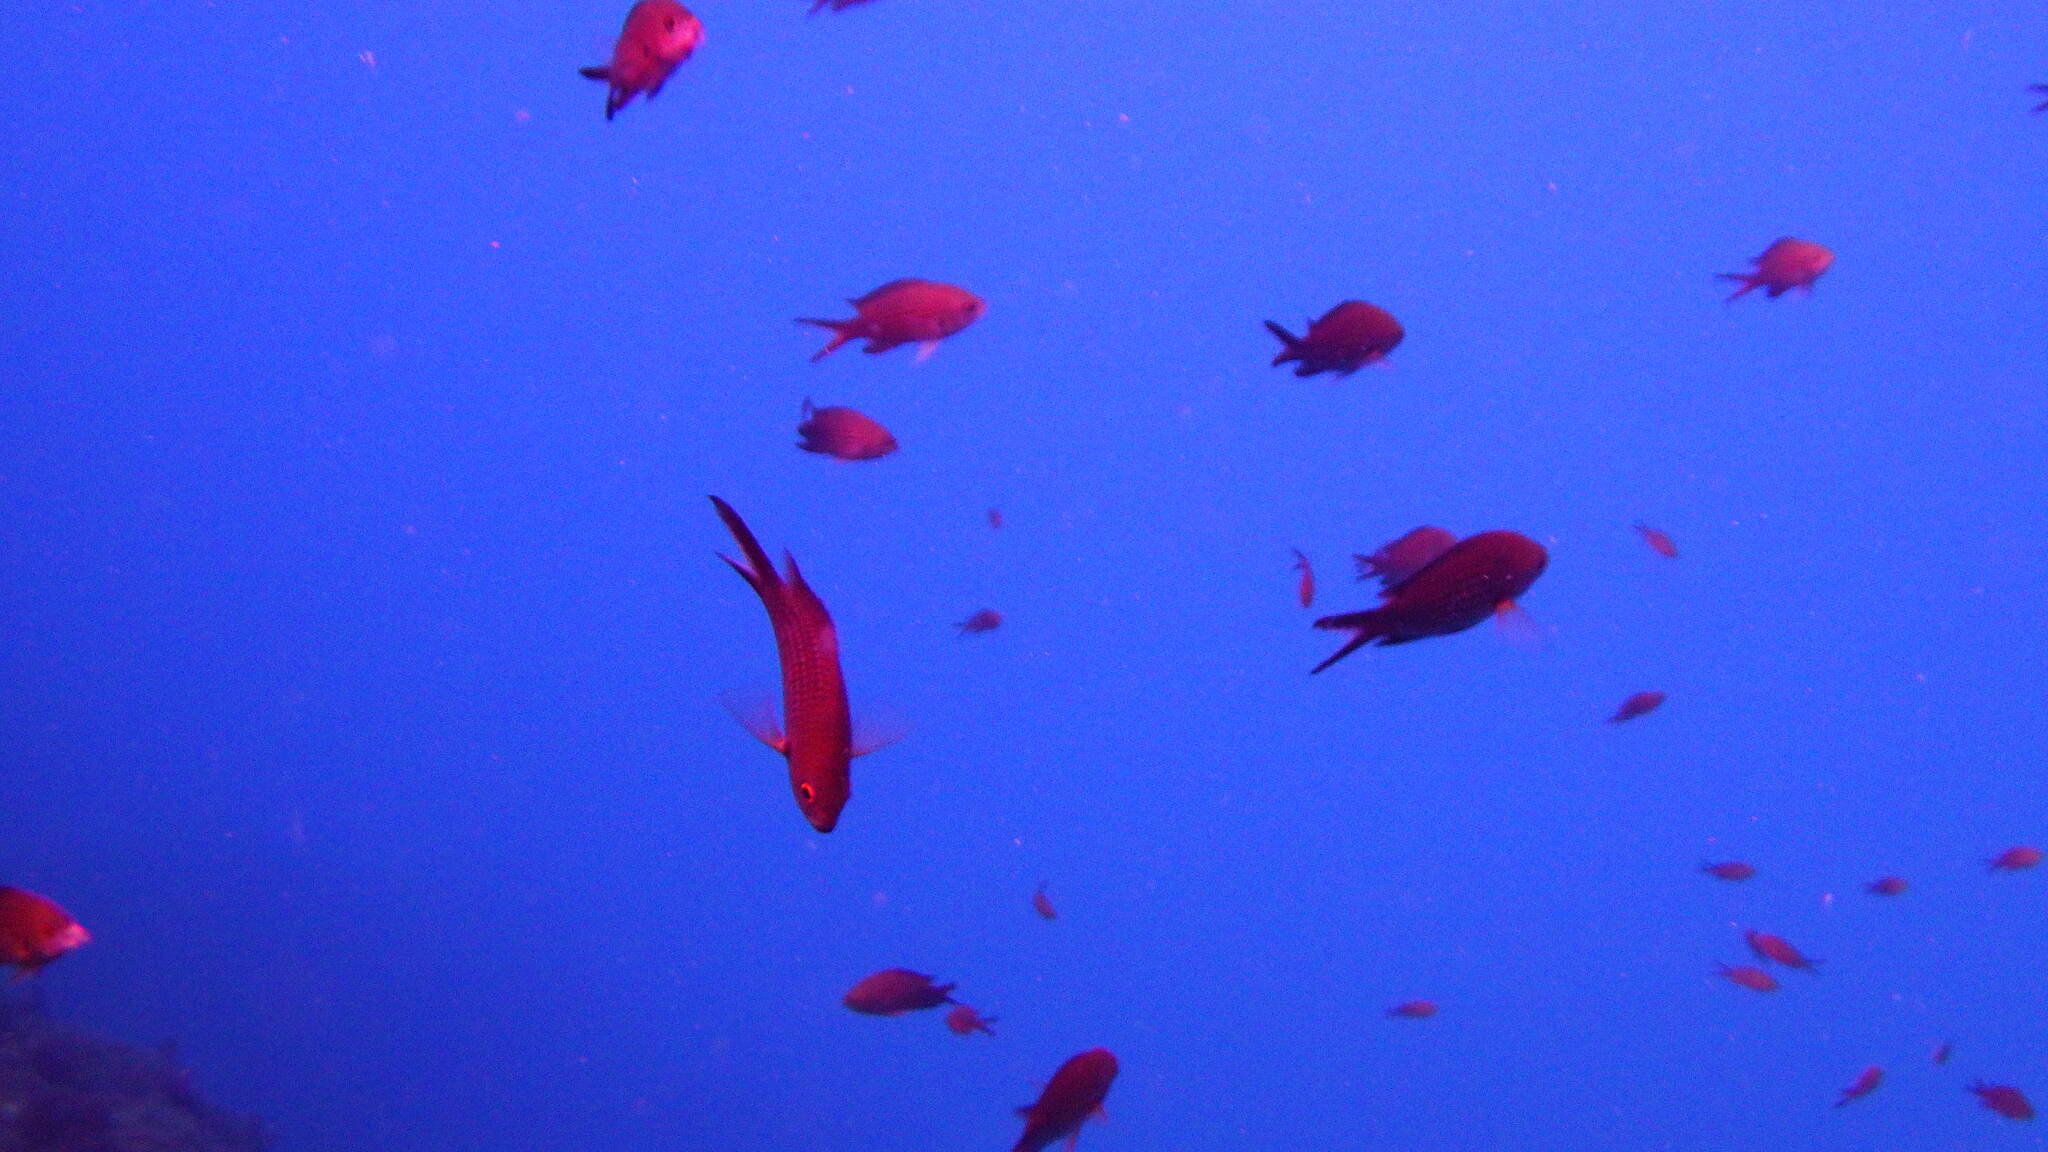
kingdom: Animalia
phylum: Chordata
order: Perciformes
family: Pomacentridae
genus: Chromis
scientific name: Chromis chromis
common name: Damselfish
